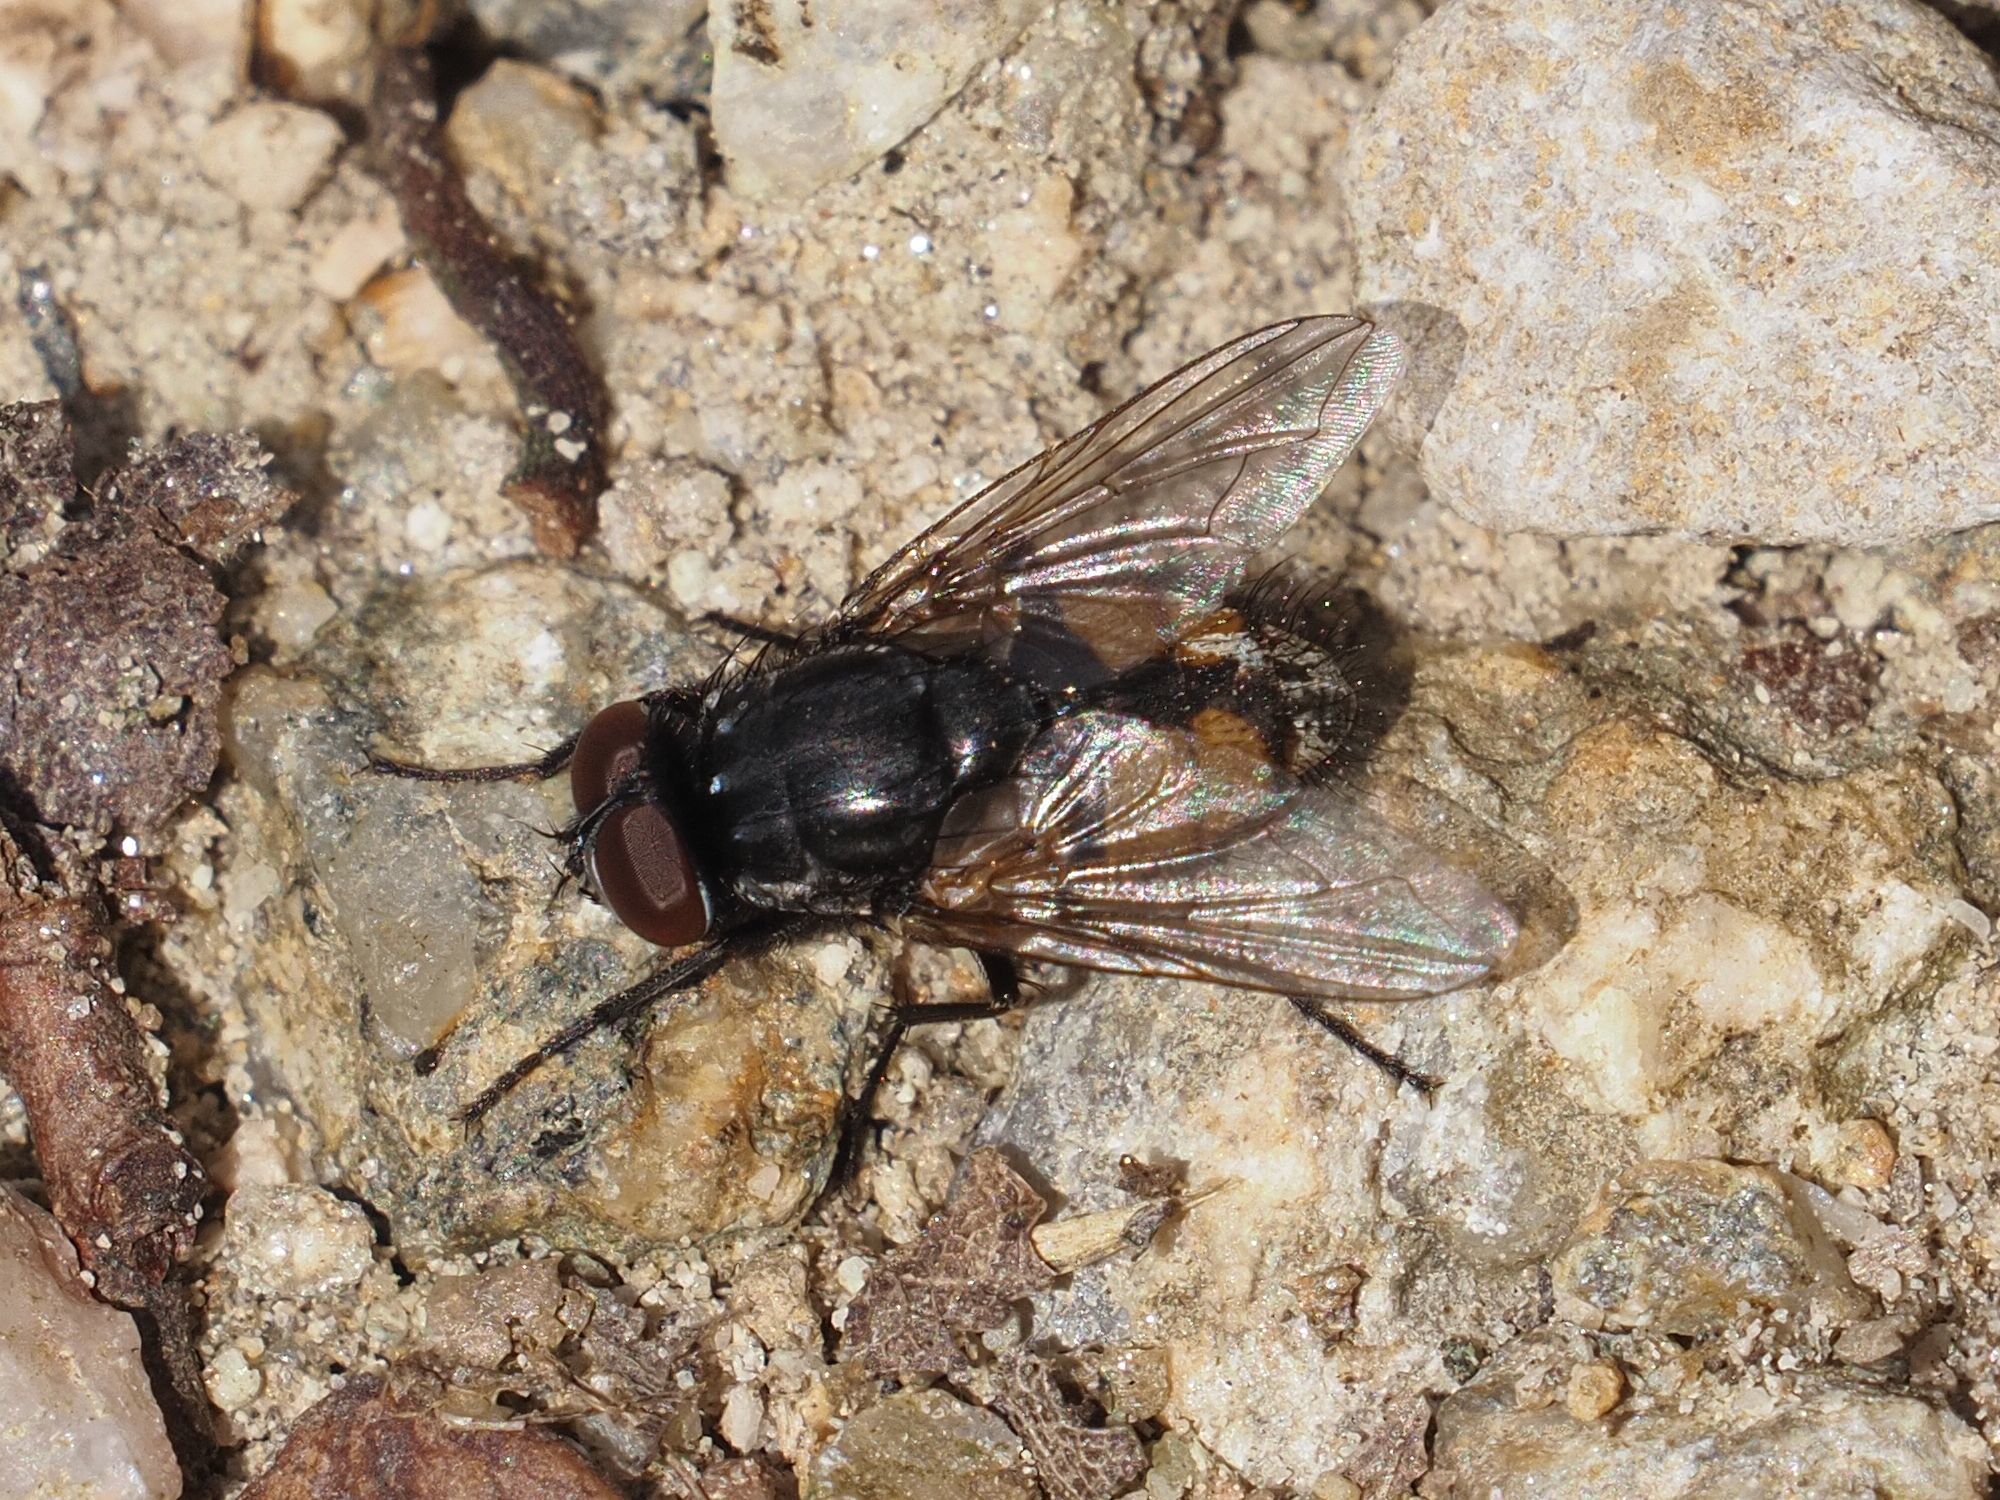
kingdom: Animalia
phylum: Arthropoda
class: Insecta
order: Diptera
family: Muscidae
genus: Musca
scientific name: Musca autumnalis
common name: Face fly
